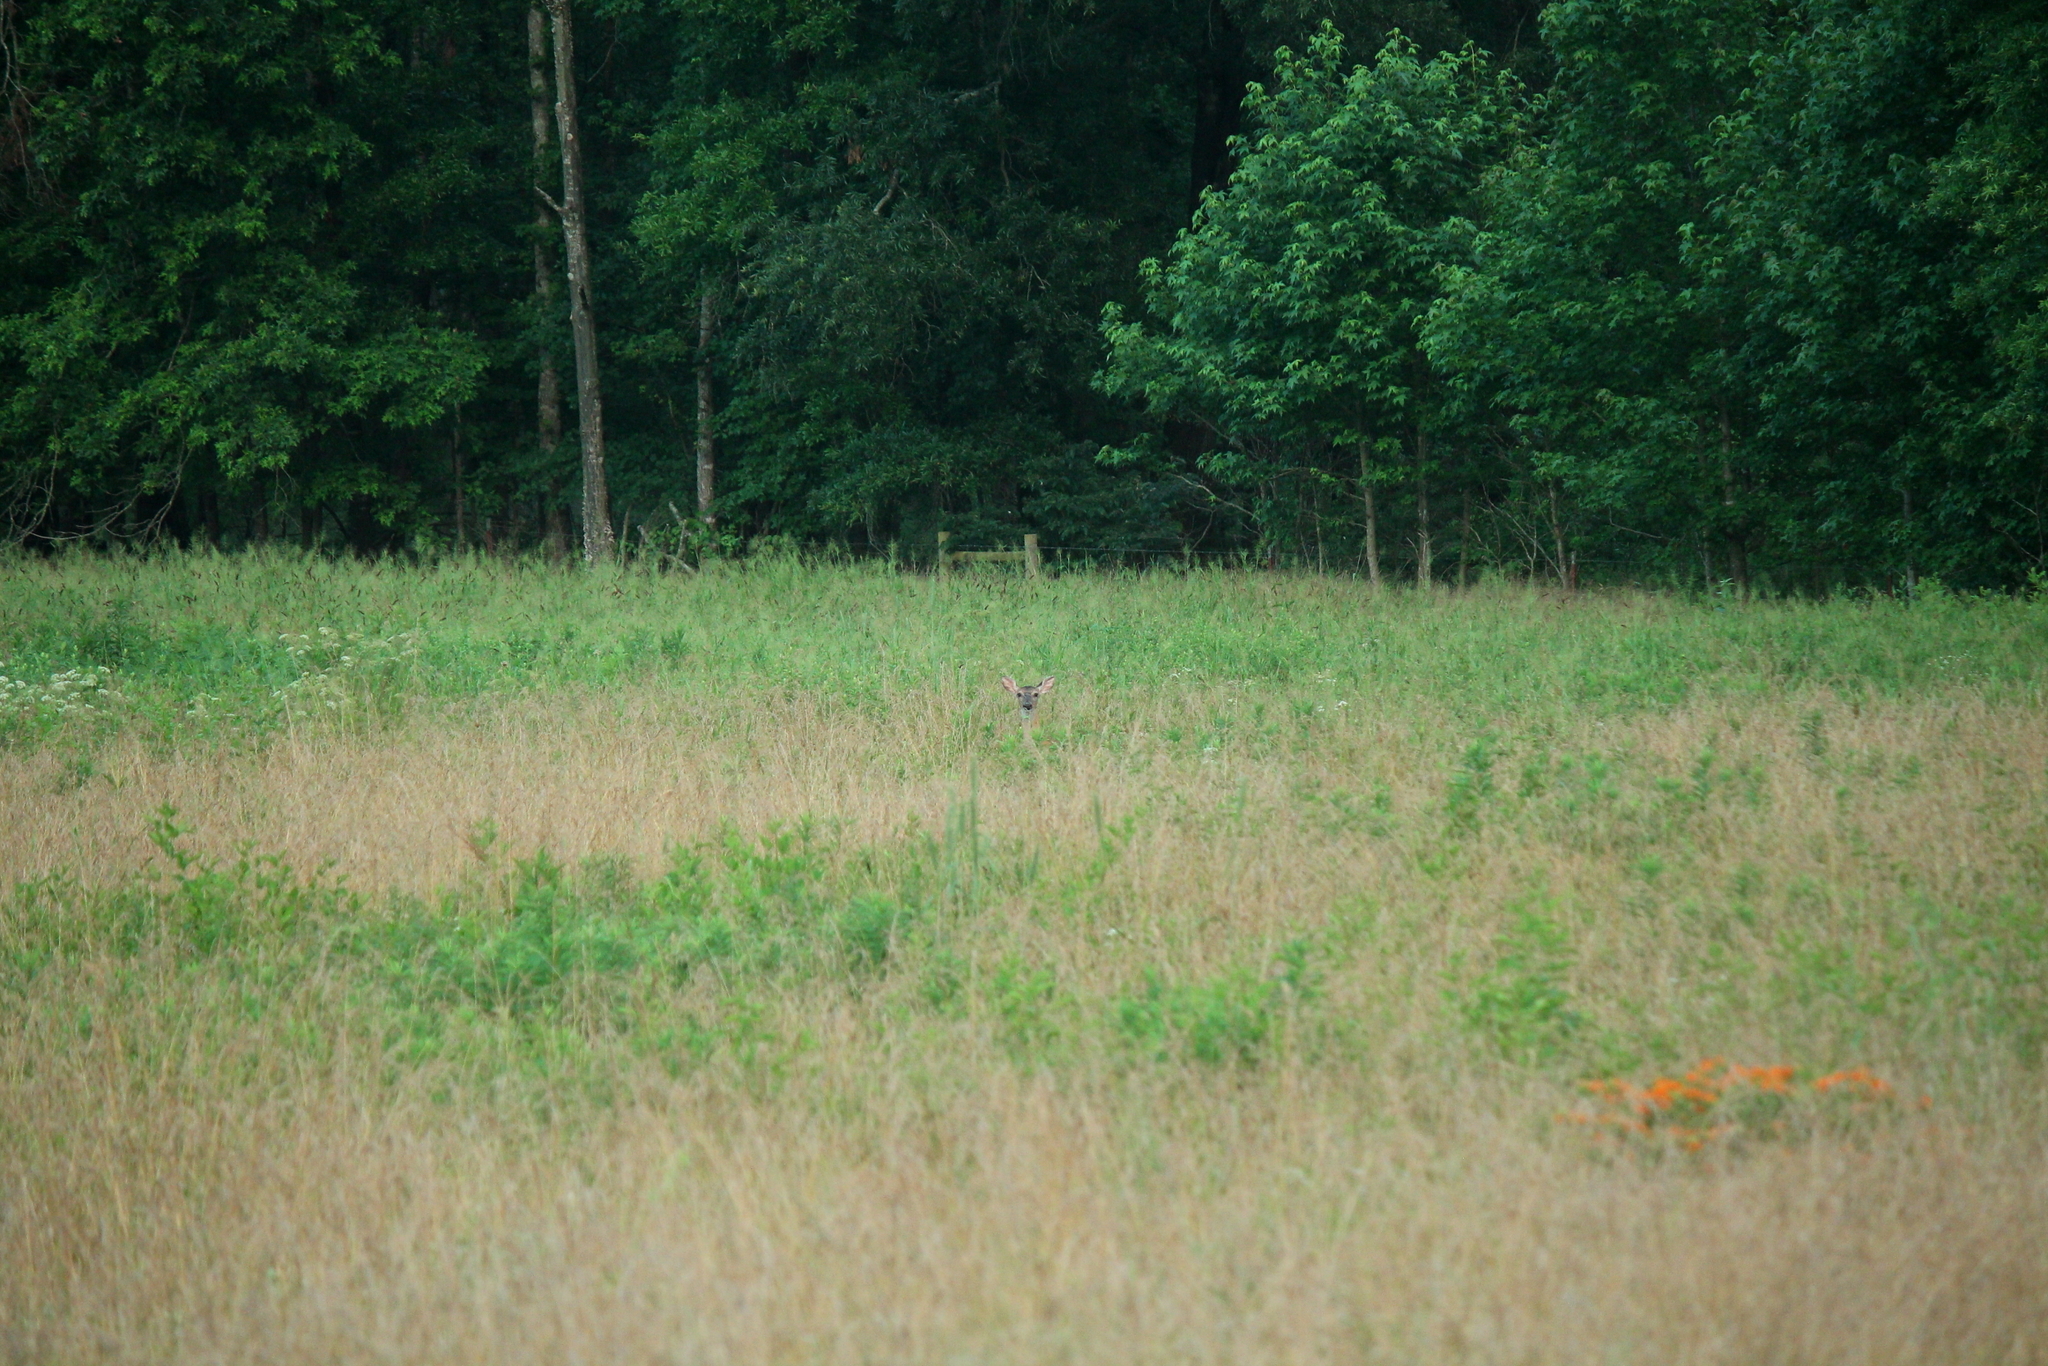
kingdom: Animalia
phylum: Chordata
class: Mammalia
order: Artiodactyla
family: Cervidae
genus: Odocoileus
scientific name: Odocoileus virginianus
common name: White-tailed deer
